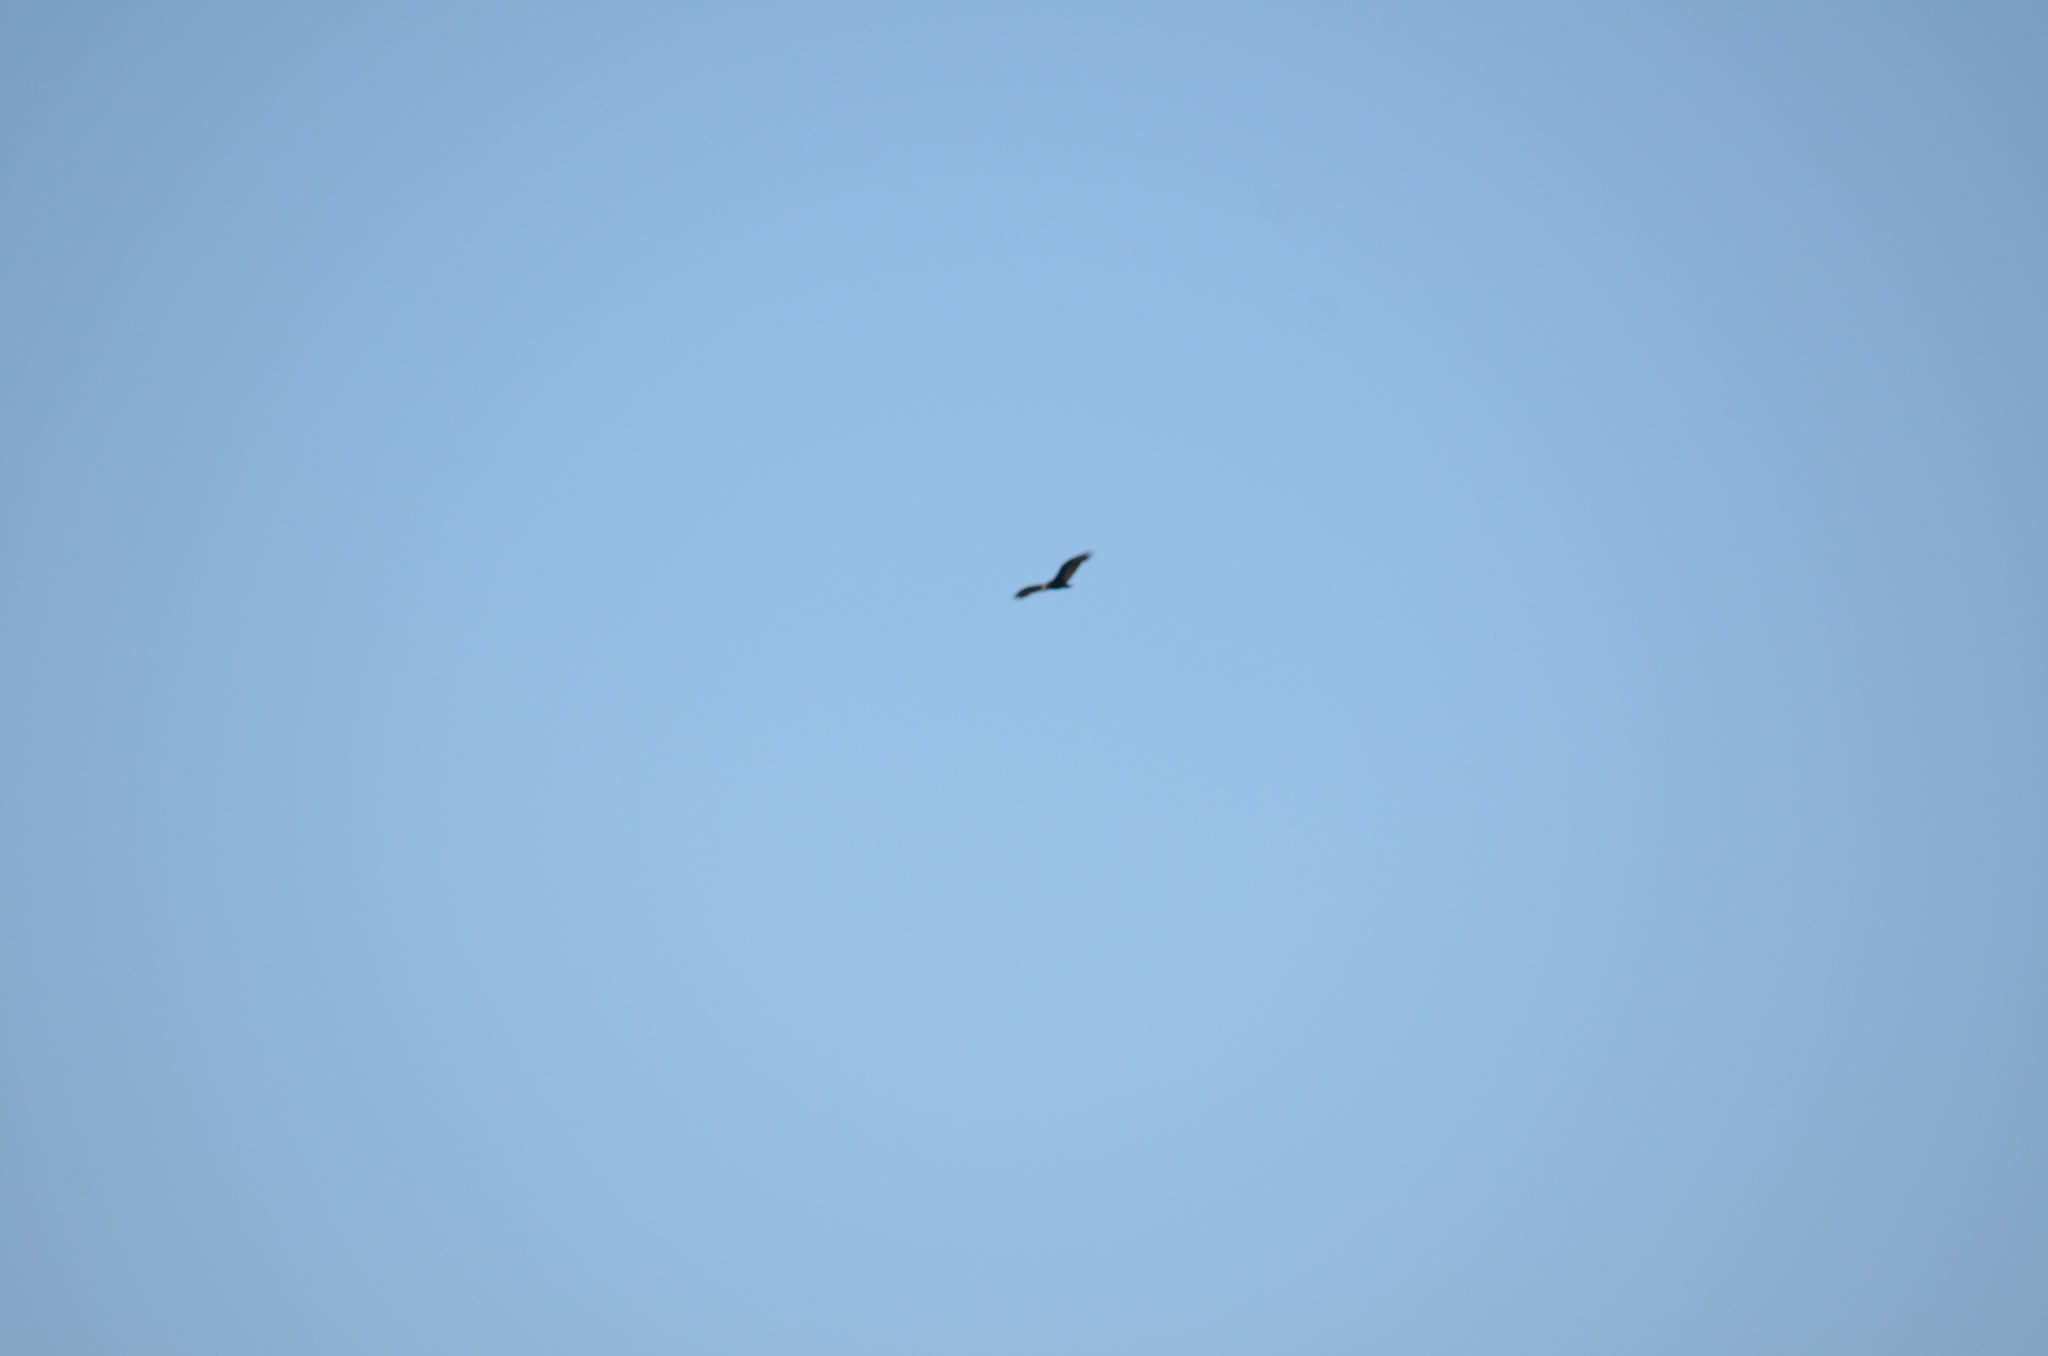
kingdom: Animalia
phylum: Chordata
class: Aves
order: Accipitriformes
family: Cathartidae
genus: Cathartes
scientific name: Cathartes aura
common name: Turkey vulture
